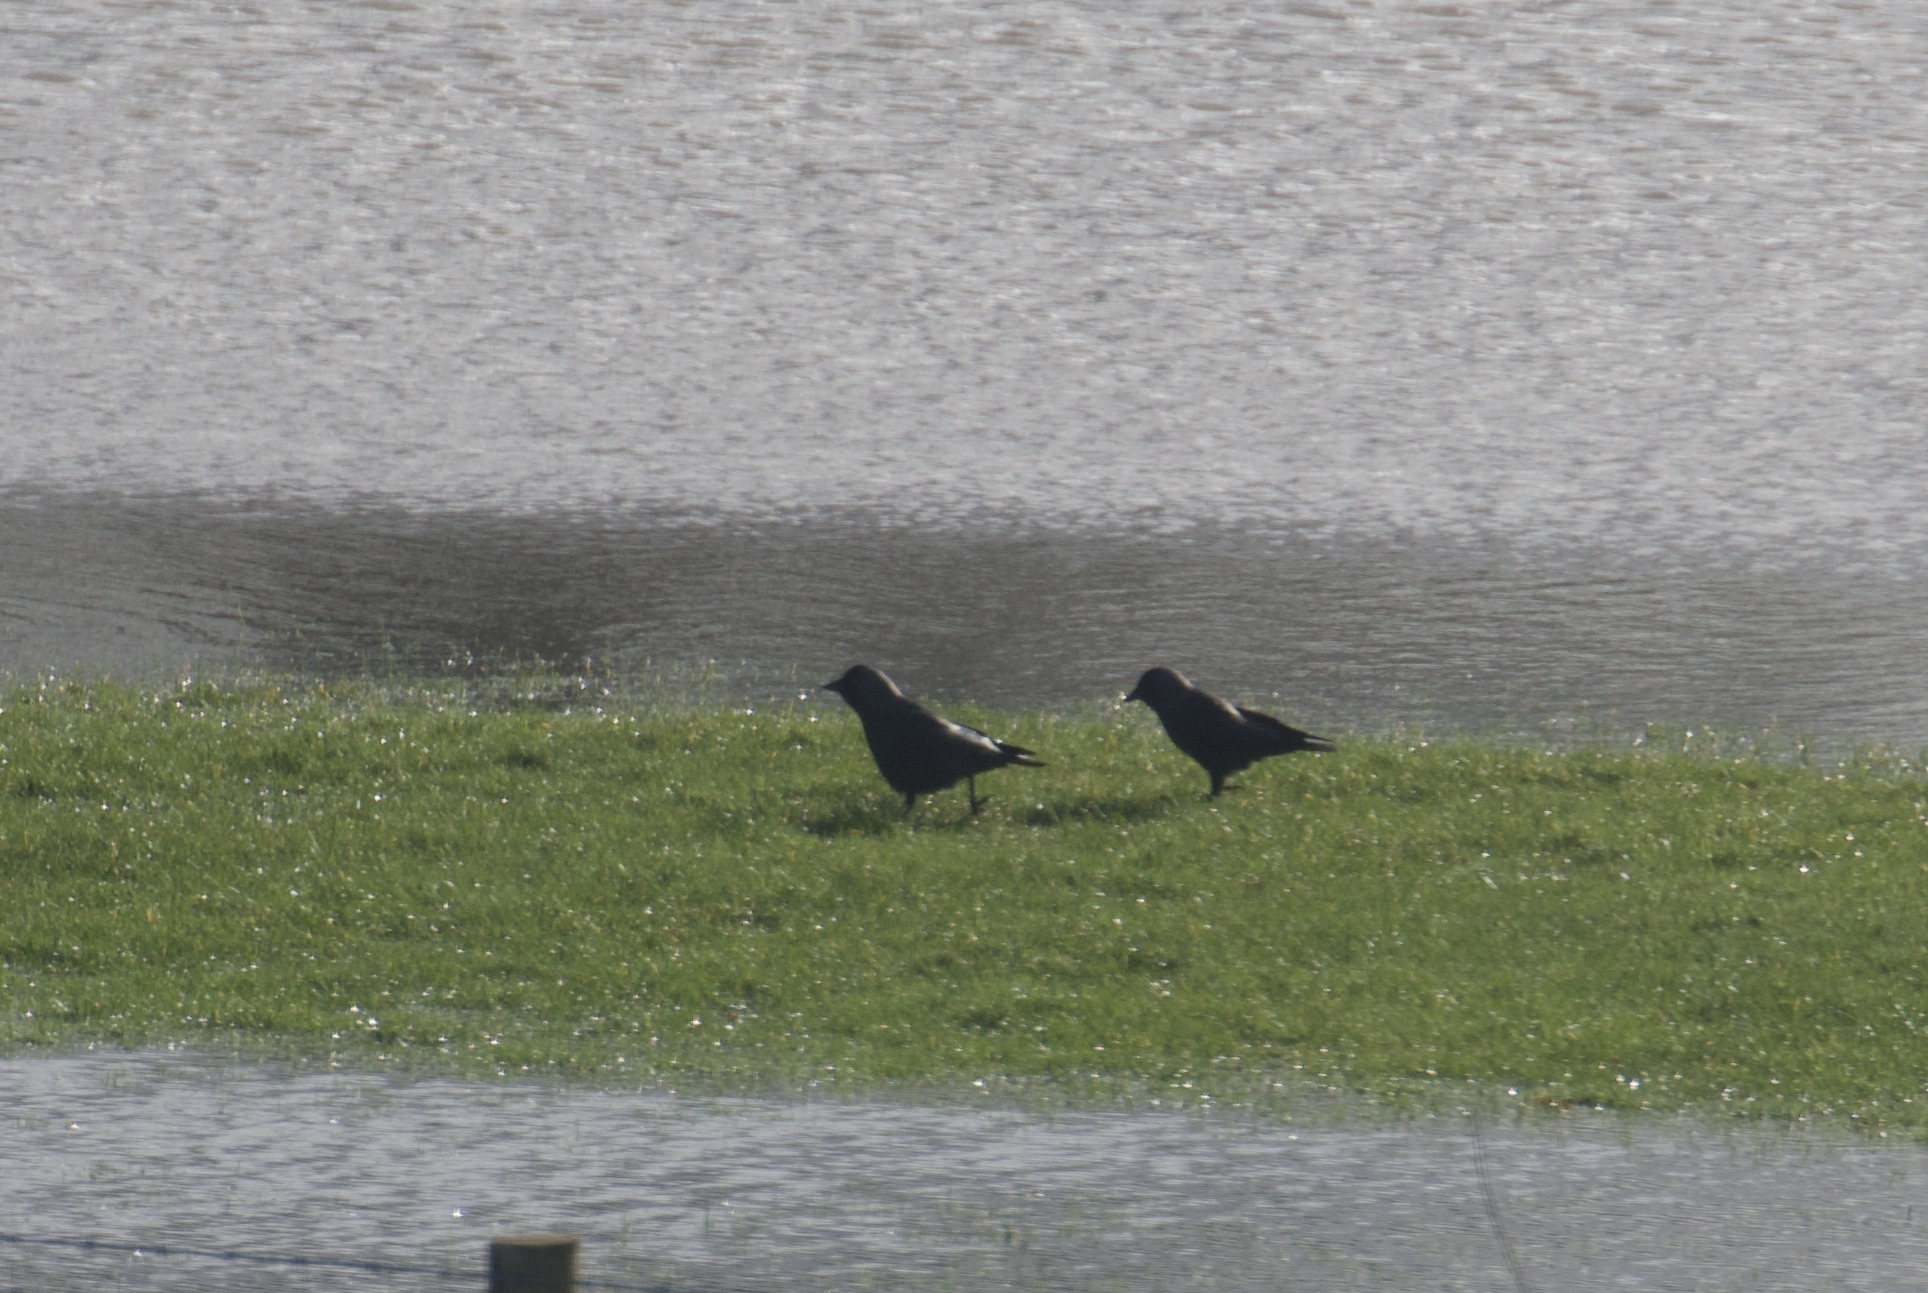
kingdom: Animalia
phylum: Chordata
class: Aves
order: Passeriformes
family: Corvidae
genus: Coloeus
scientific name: Coloeus monedula
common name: Western jackdaw
